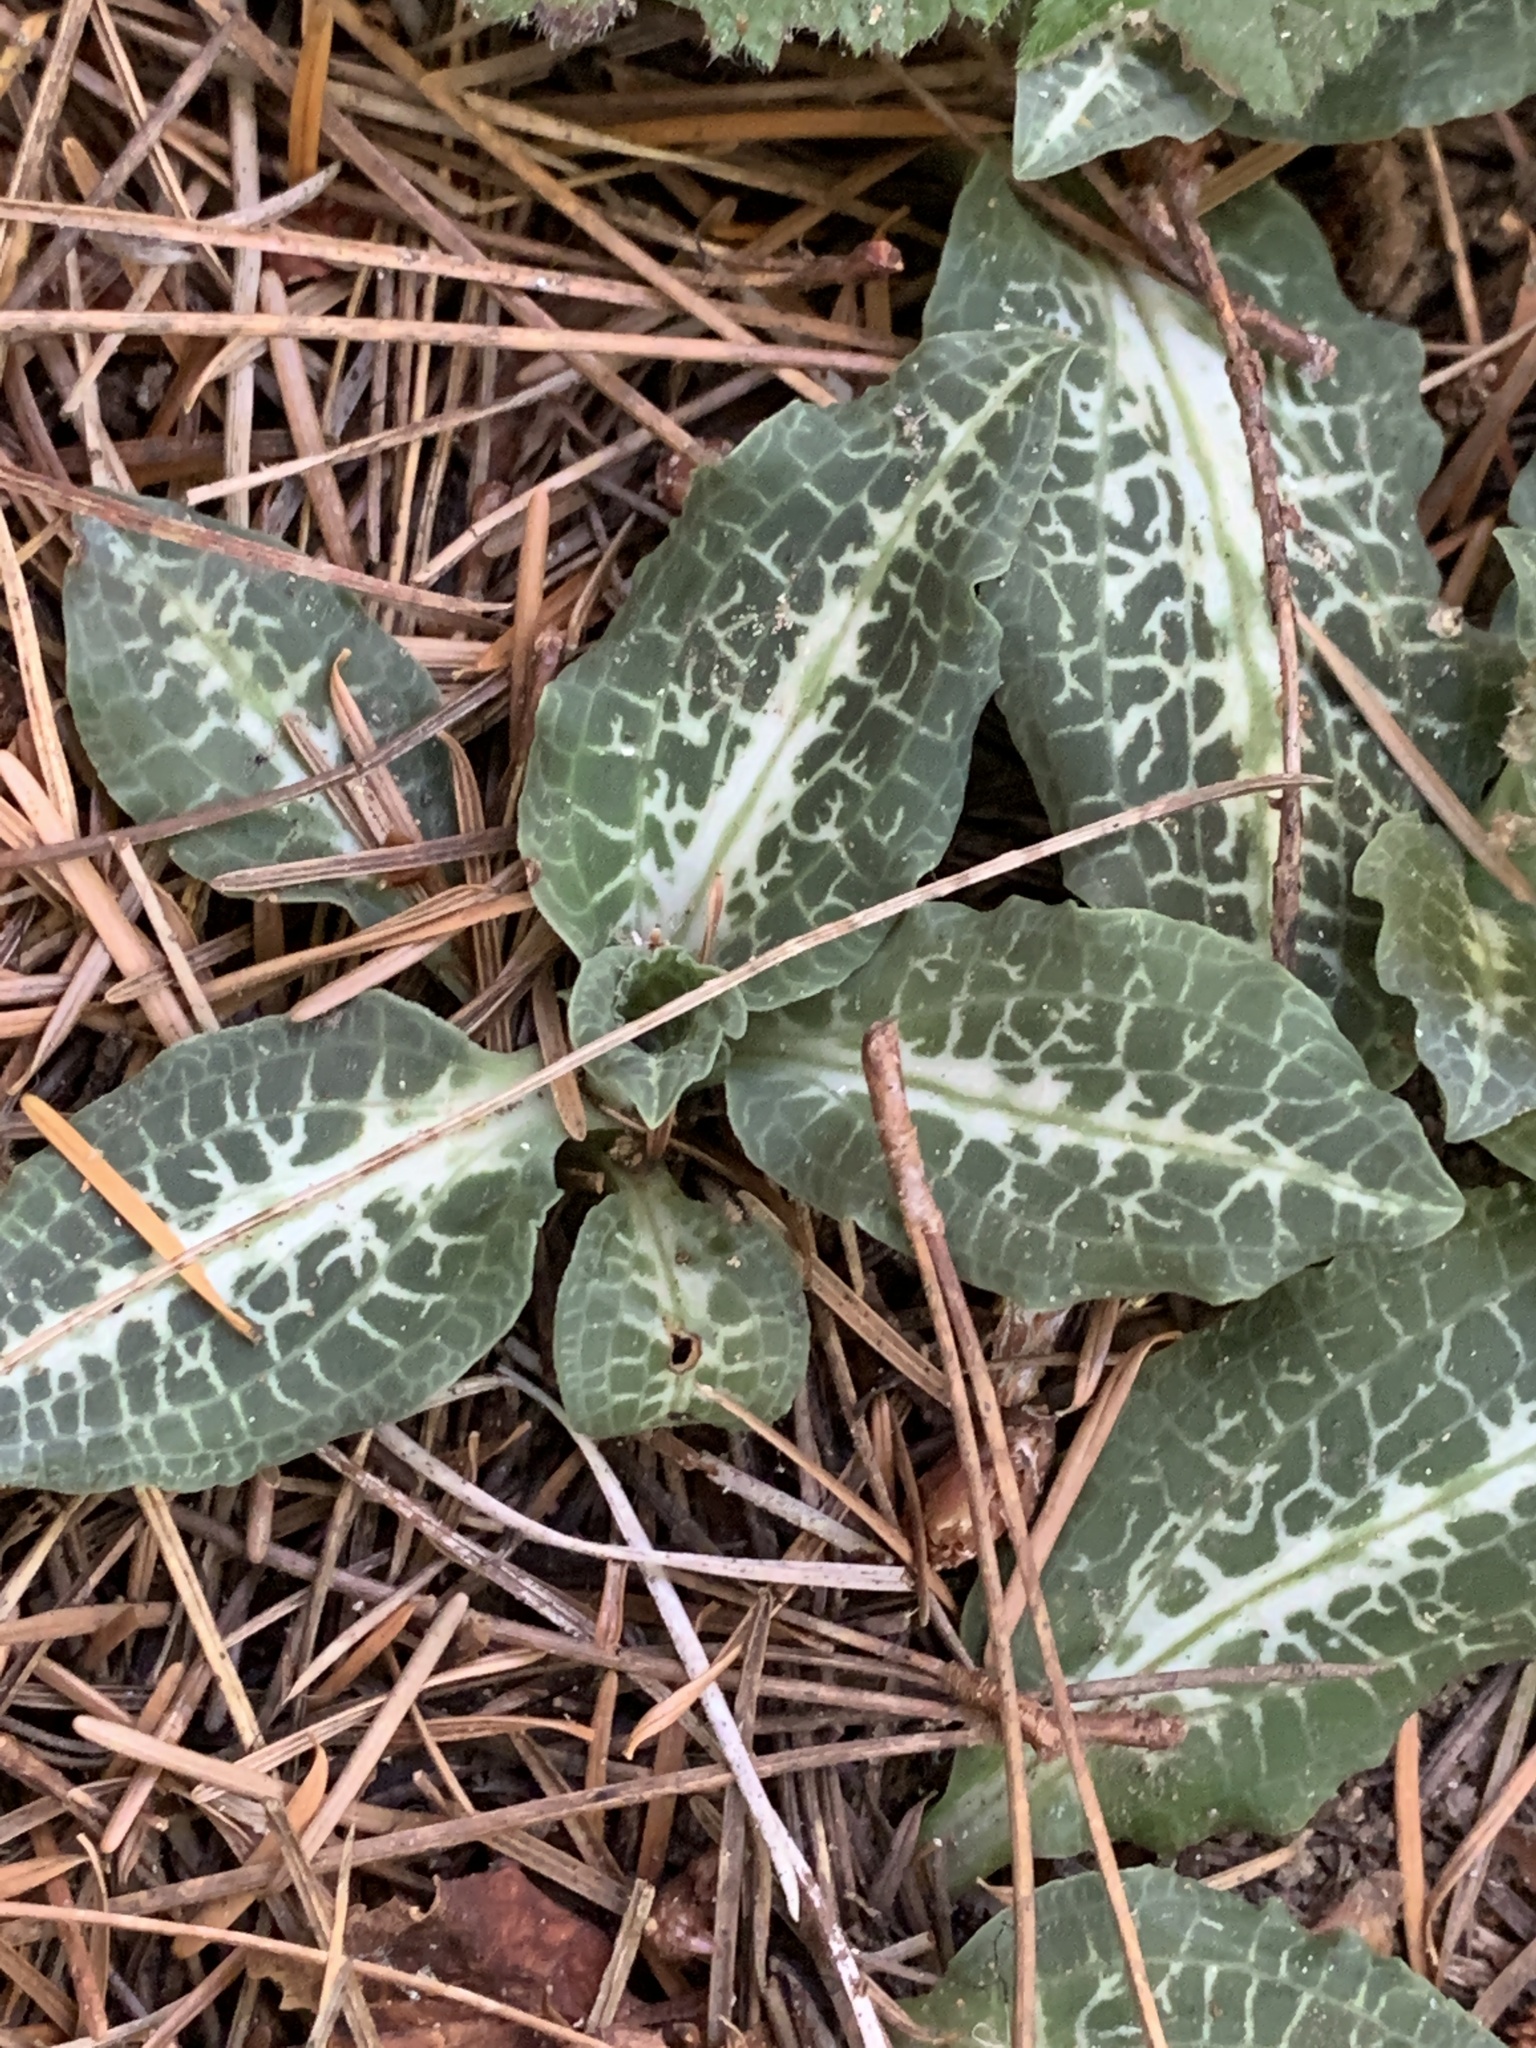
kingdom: Plantae
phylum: Tracheophyta
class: Liliopsida
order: Asparagales
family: Orchidaceae
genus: Goodyera
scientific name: Goodyera oblongifolia
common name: Giant rattlesnake-plantain
